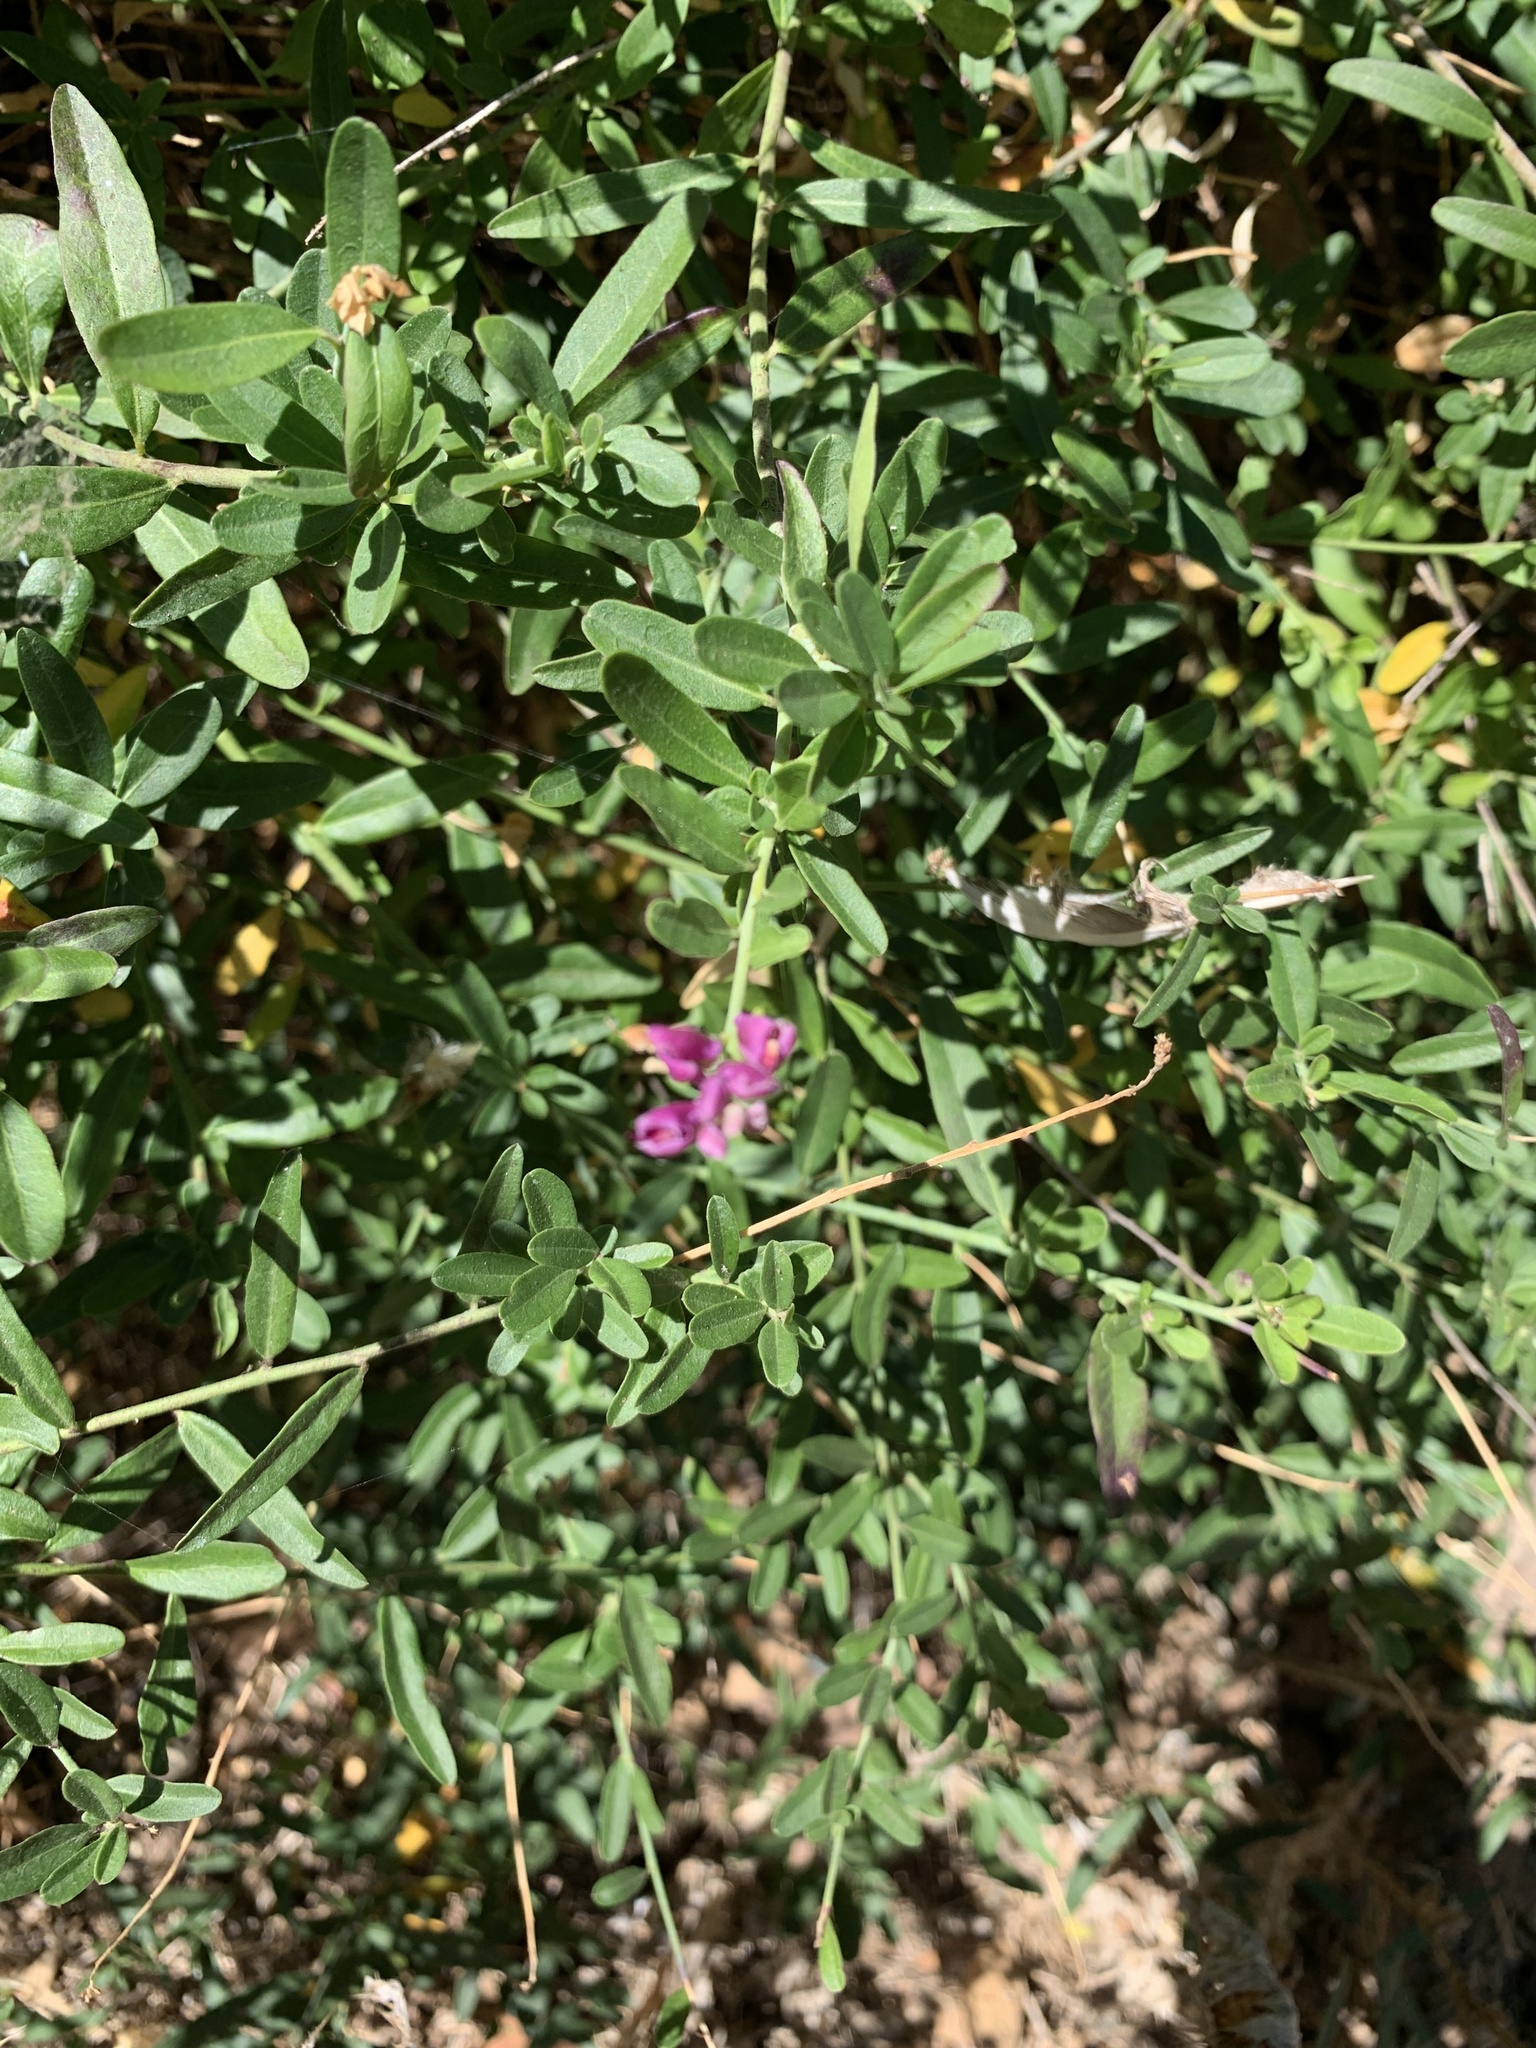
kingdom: Plantae
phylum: Tracheophyta
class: Magnoliopsida
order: Fabales
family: Polygalaceae
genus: Rhinotropis
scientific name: Rhinotropis cornuta
